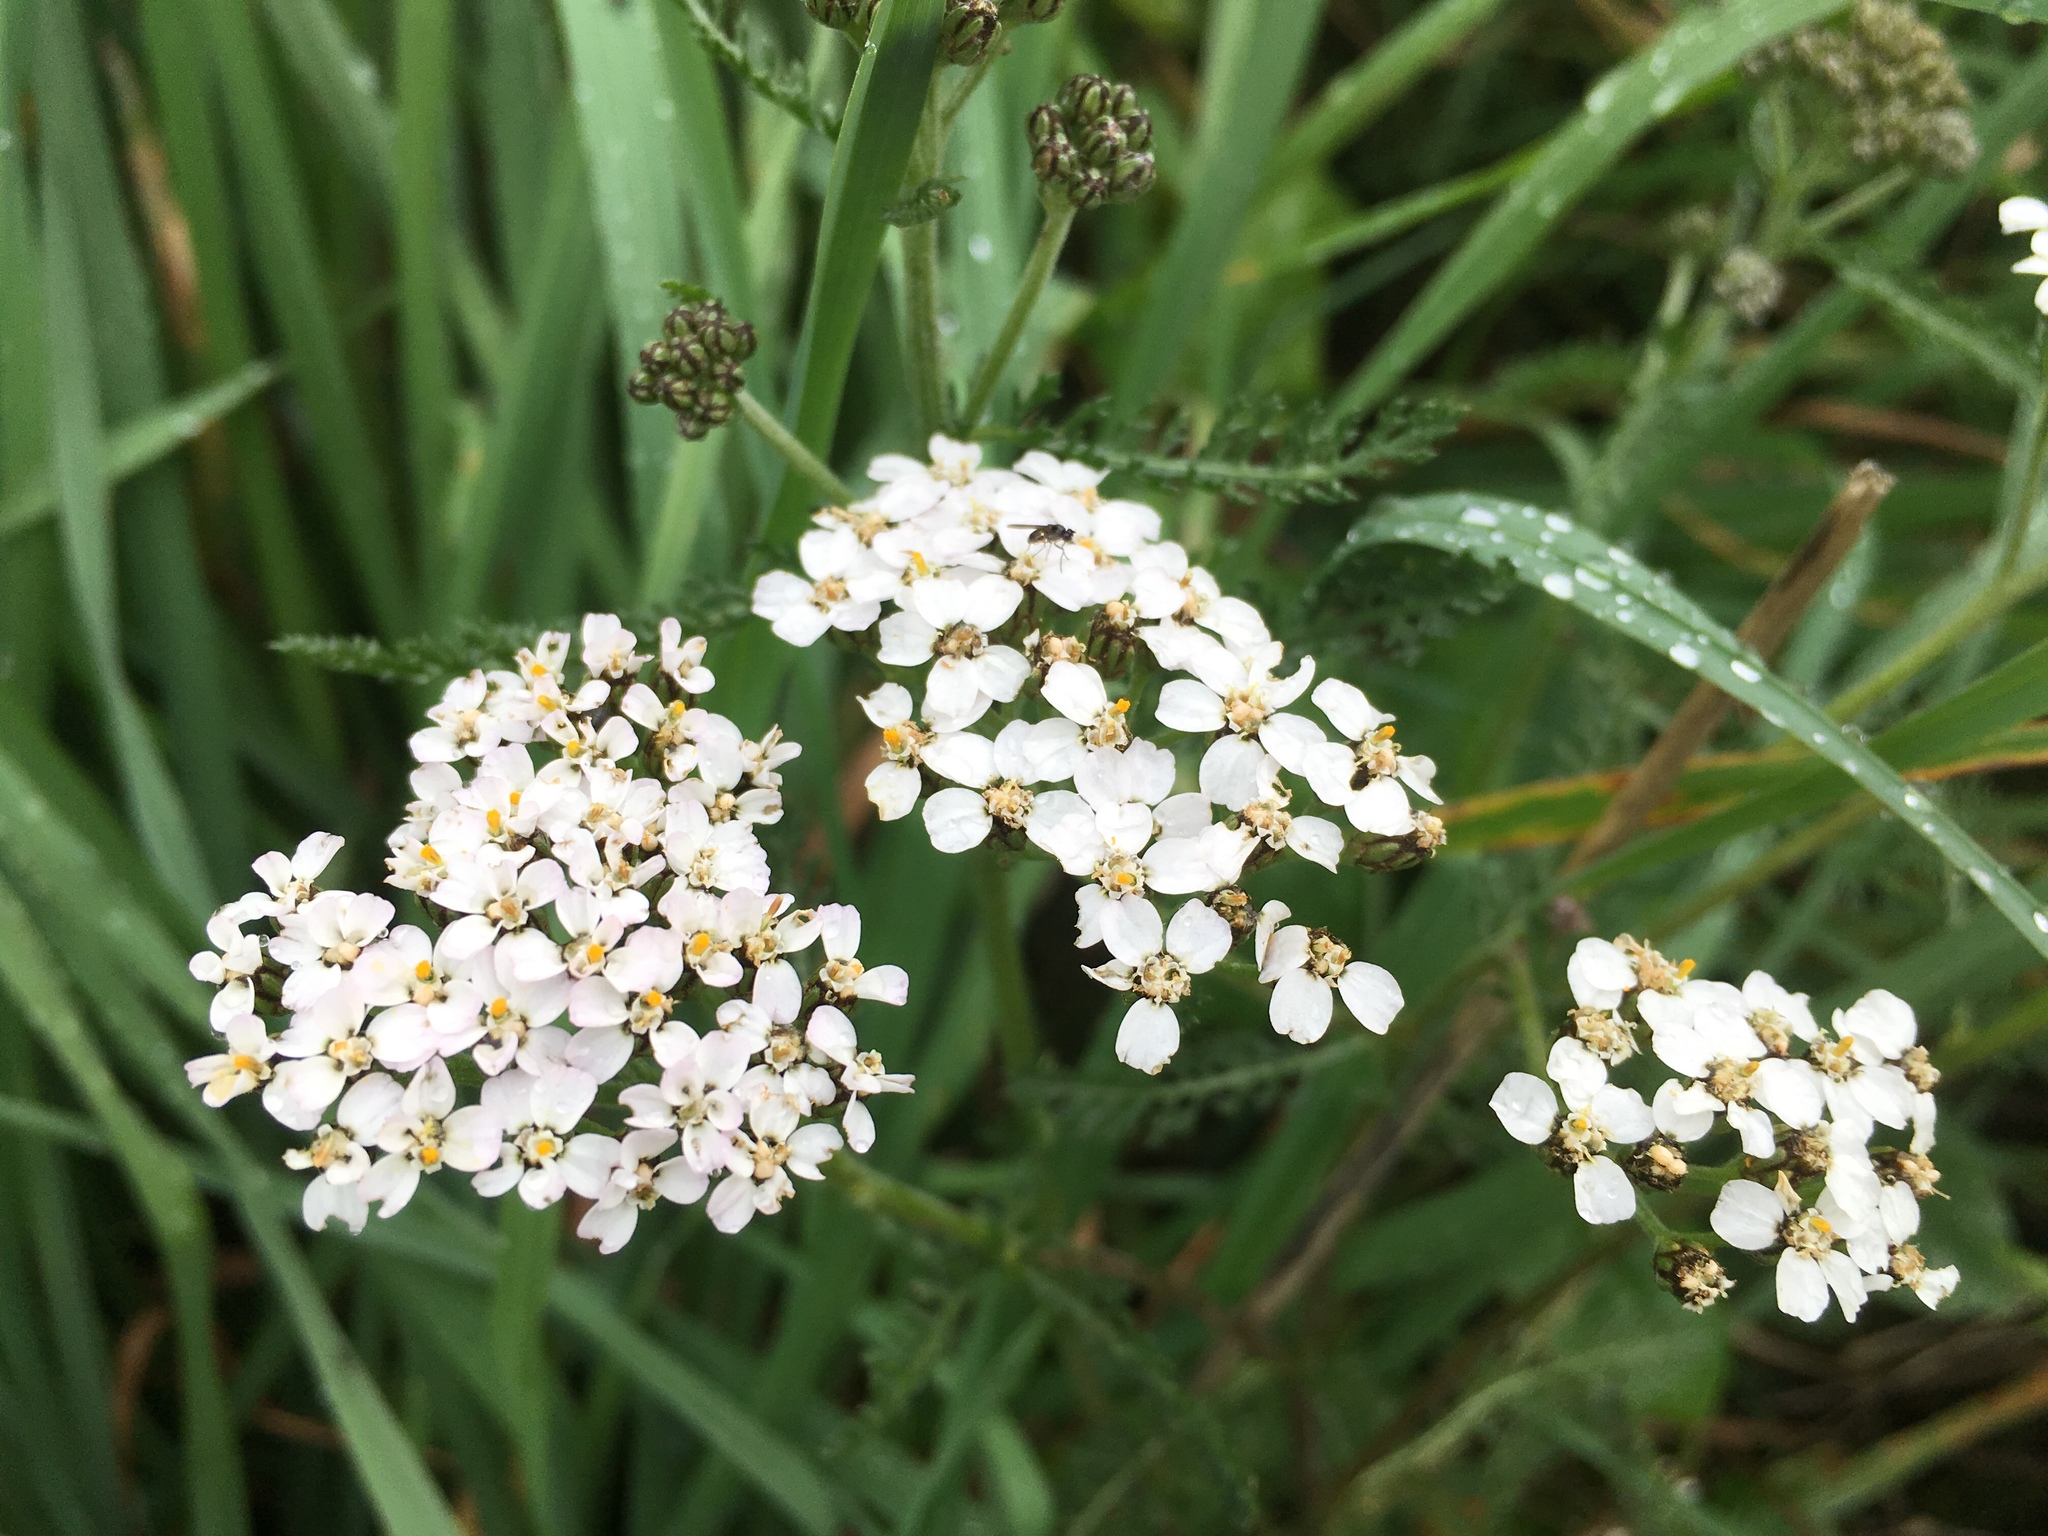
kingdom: Plantae
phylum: Tracheophyta
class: Magnoliopsida
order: Asterales
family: Asteraceae
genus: Achillea
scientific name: Achillea millefolium
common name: Yarrow
